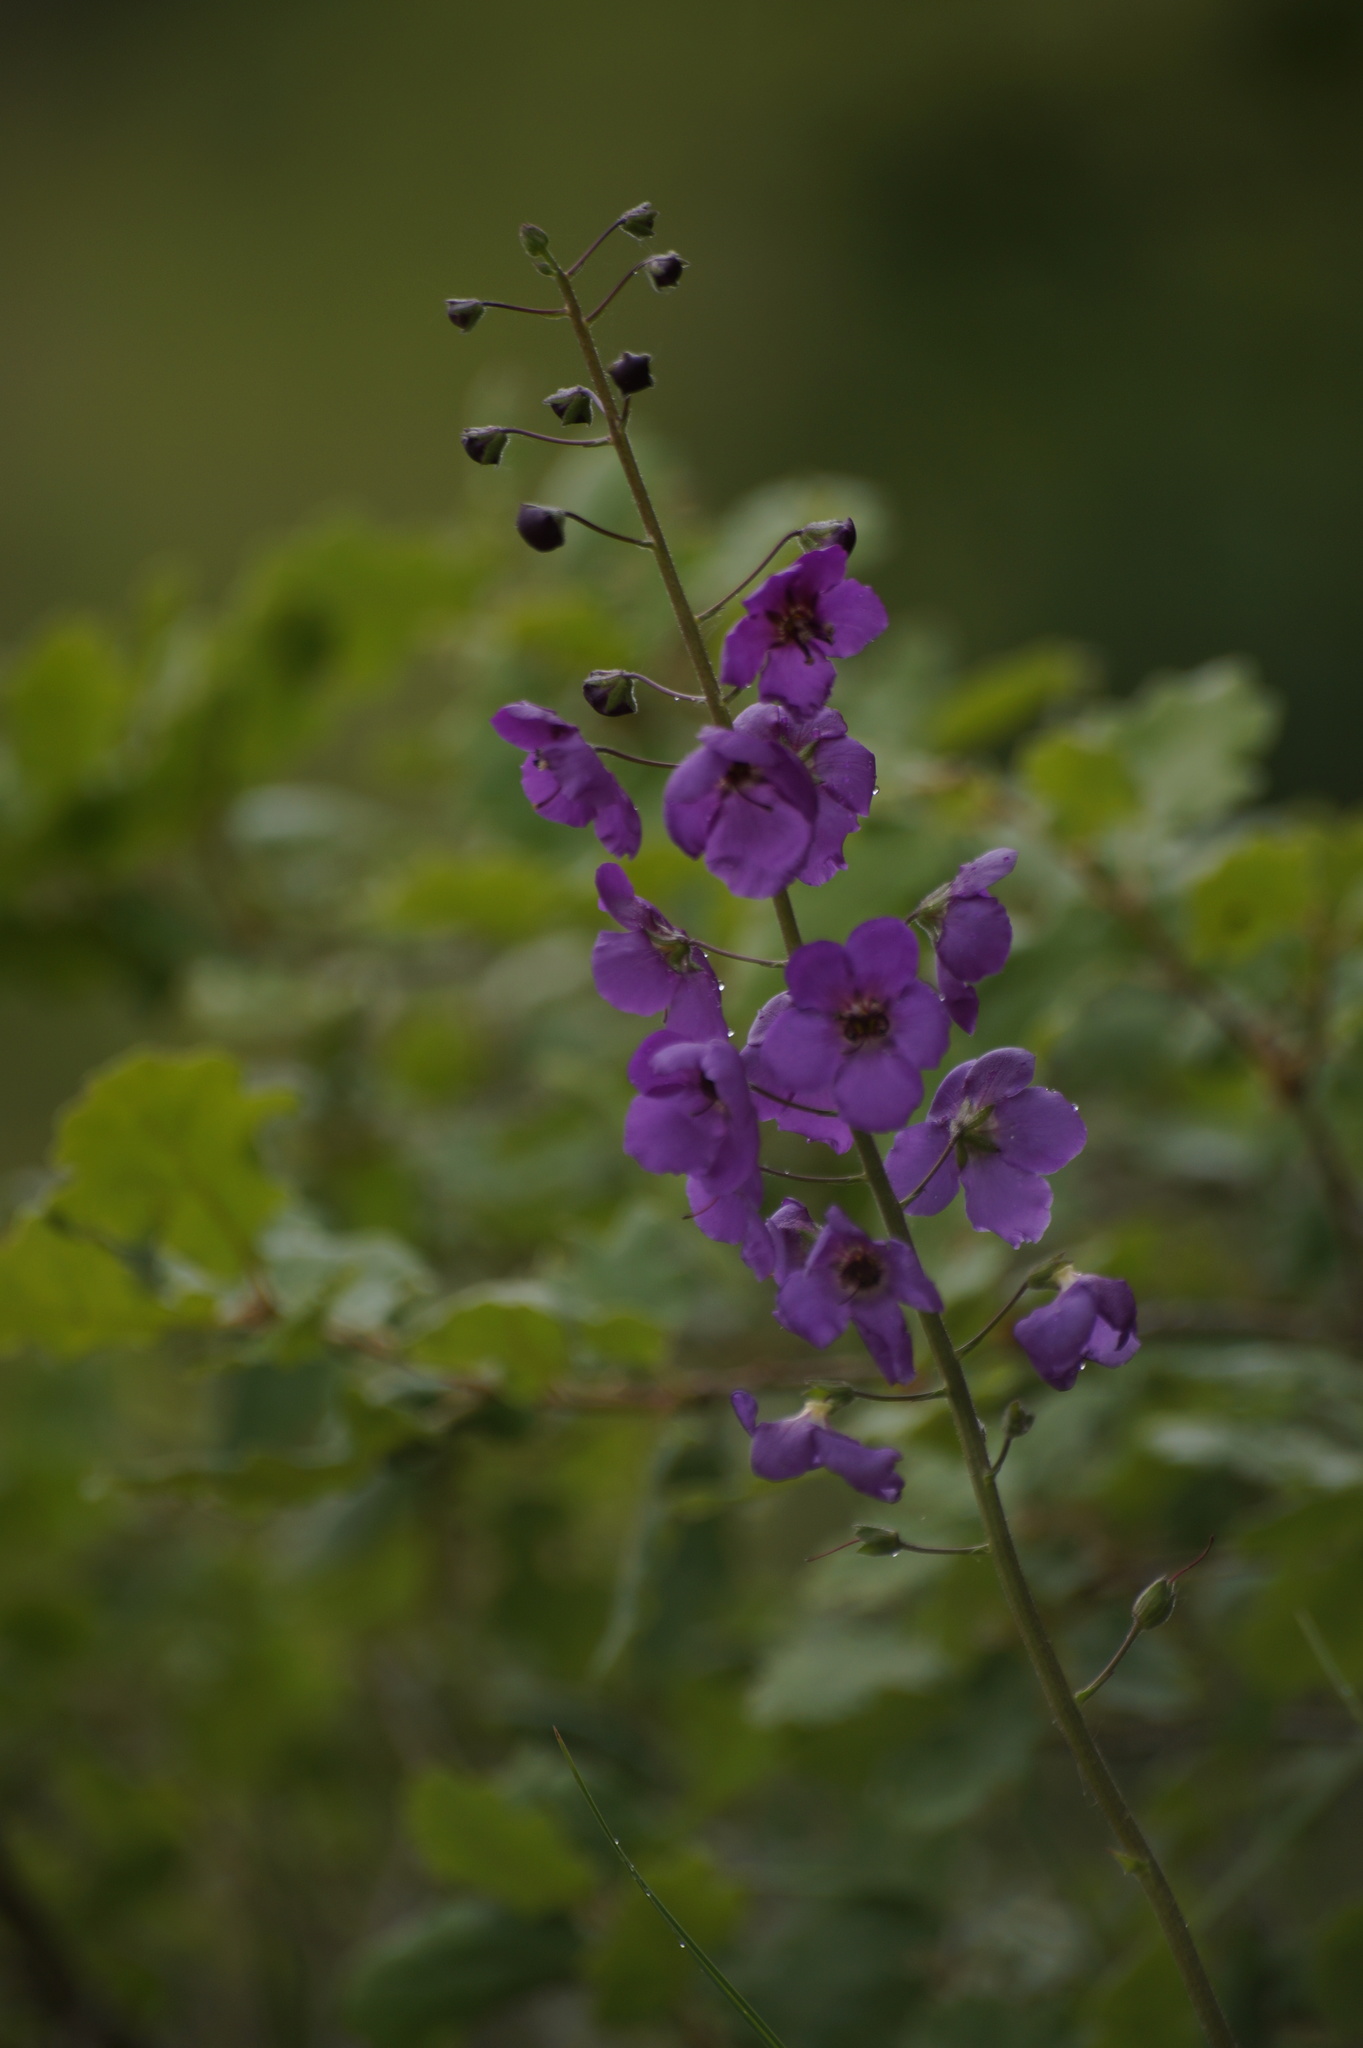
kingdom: Plantae
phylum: Tracheophyta
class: Magnoliopsida
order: Lamiales
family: Scrophulariaceae
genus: Verbascum
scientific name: Verbascum phoeniceum
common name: Purple mullein
